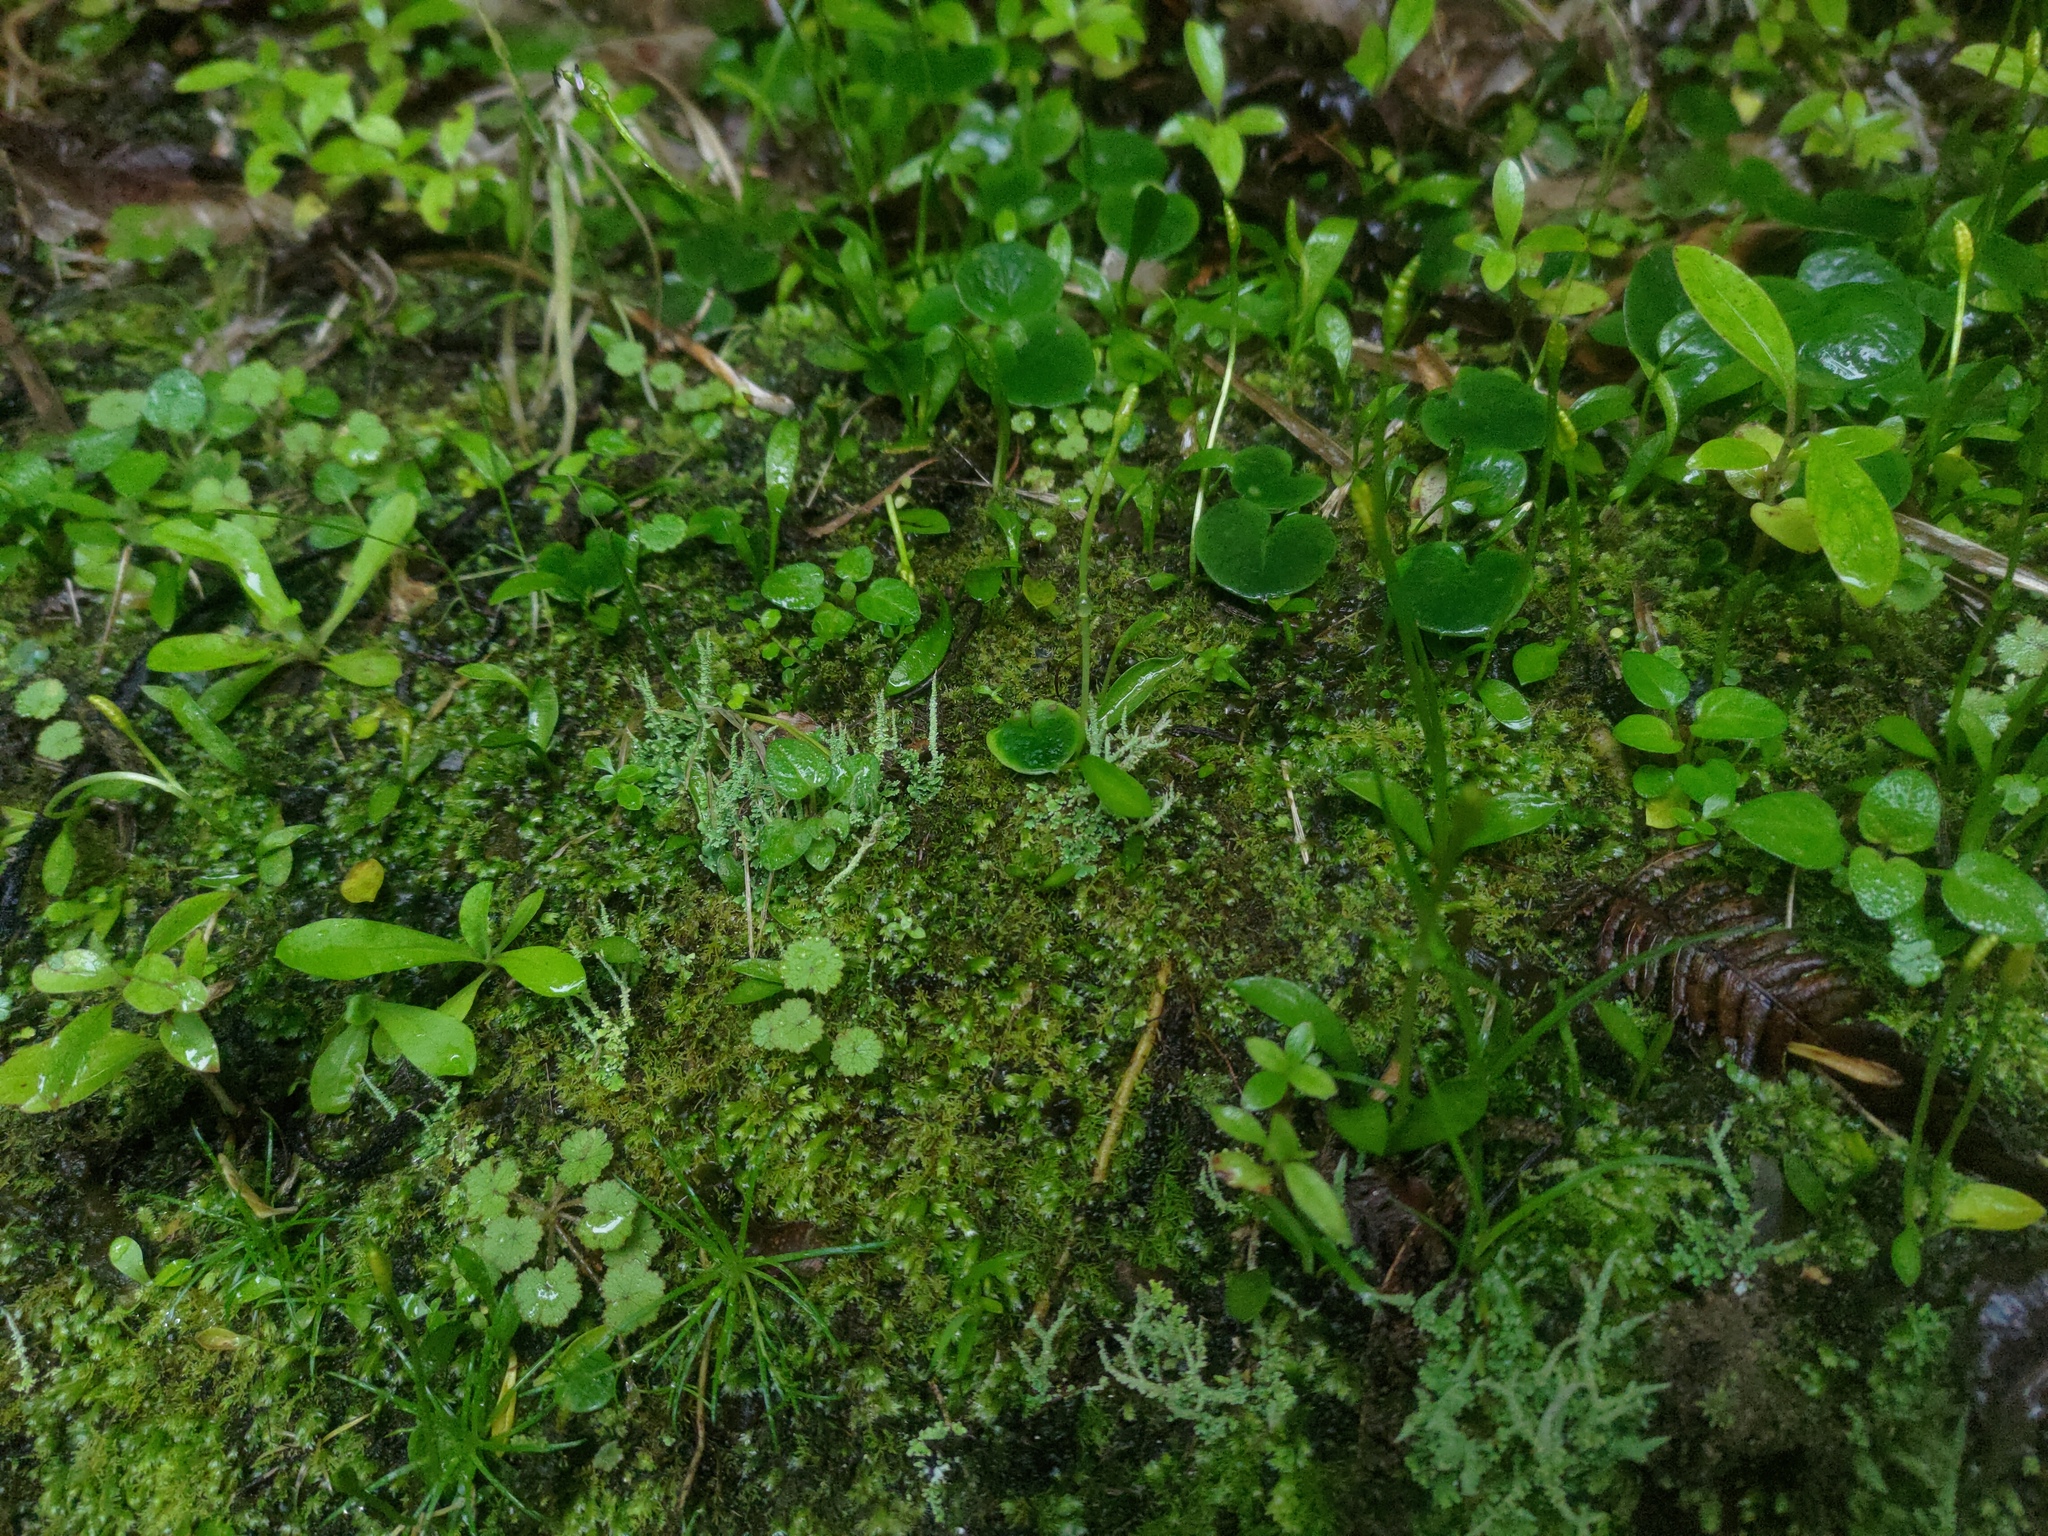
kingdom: Plantae
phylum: Tracheophyta
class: Polypodiopsida
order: Ophioglossales
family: Ophioglossaceae
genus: Ophioglossum
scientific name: Ophioglossum coriaceum
